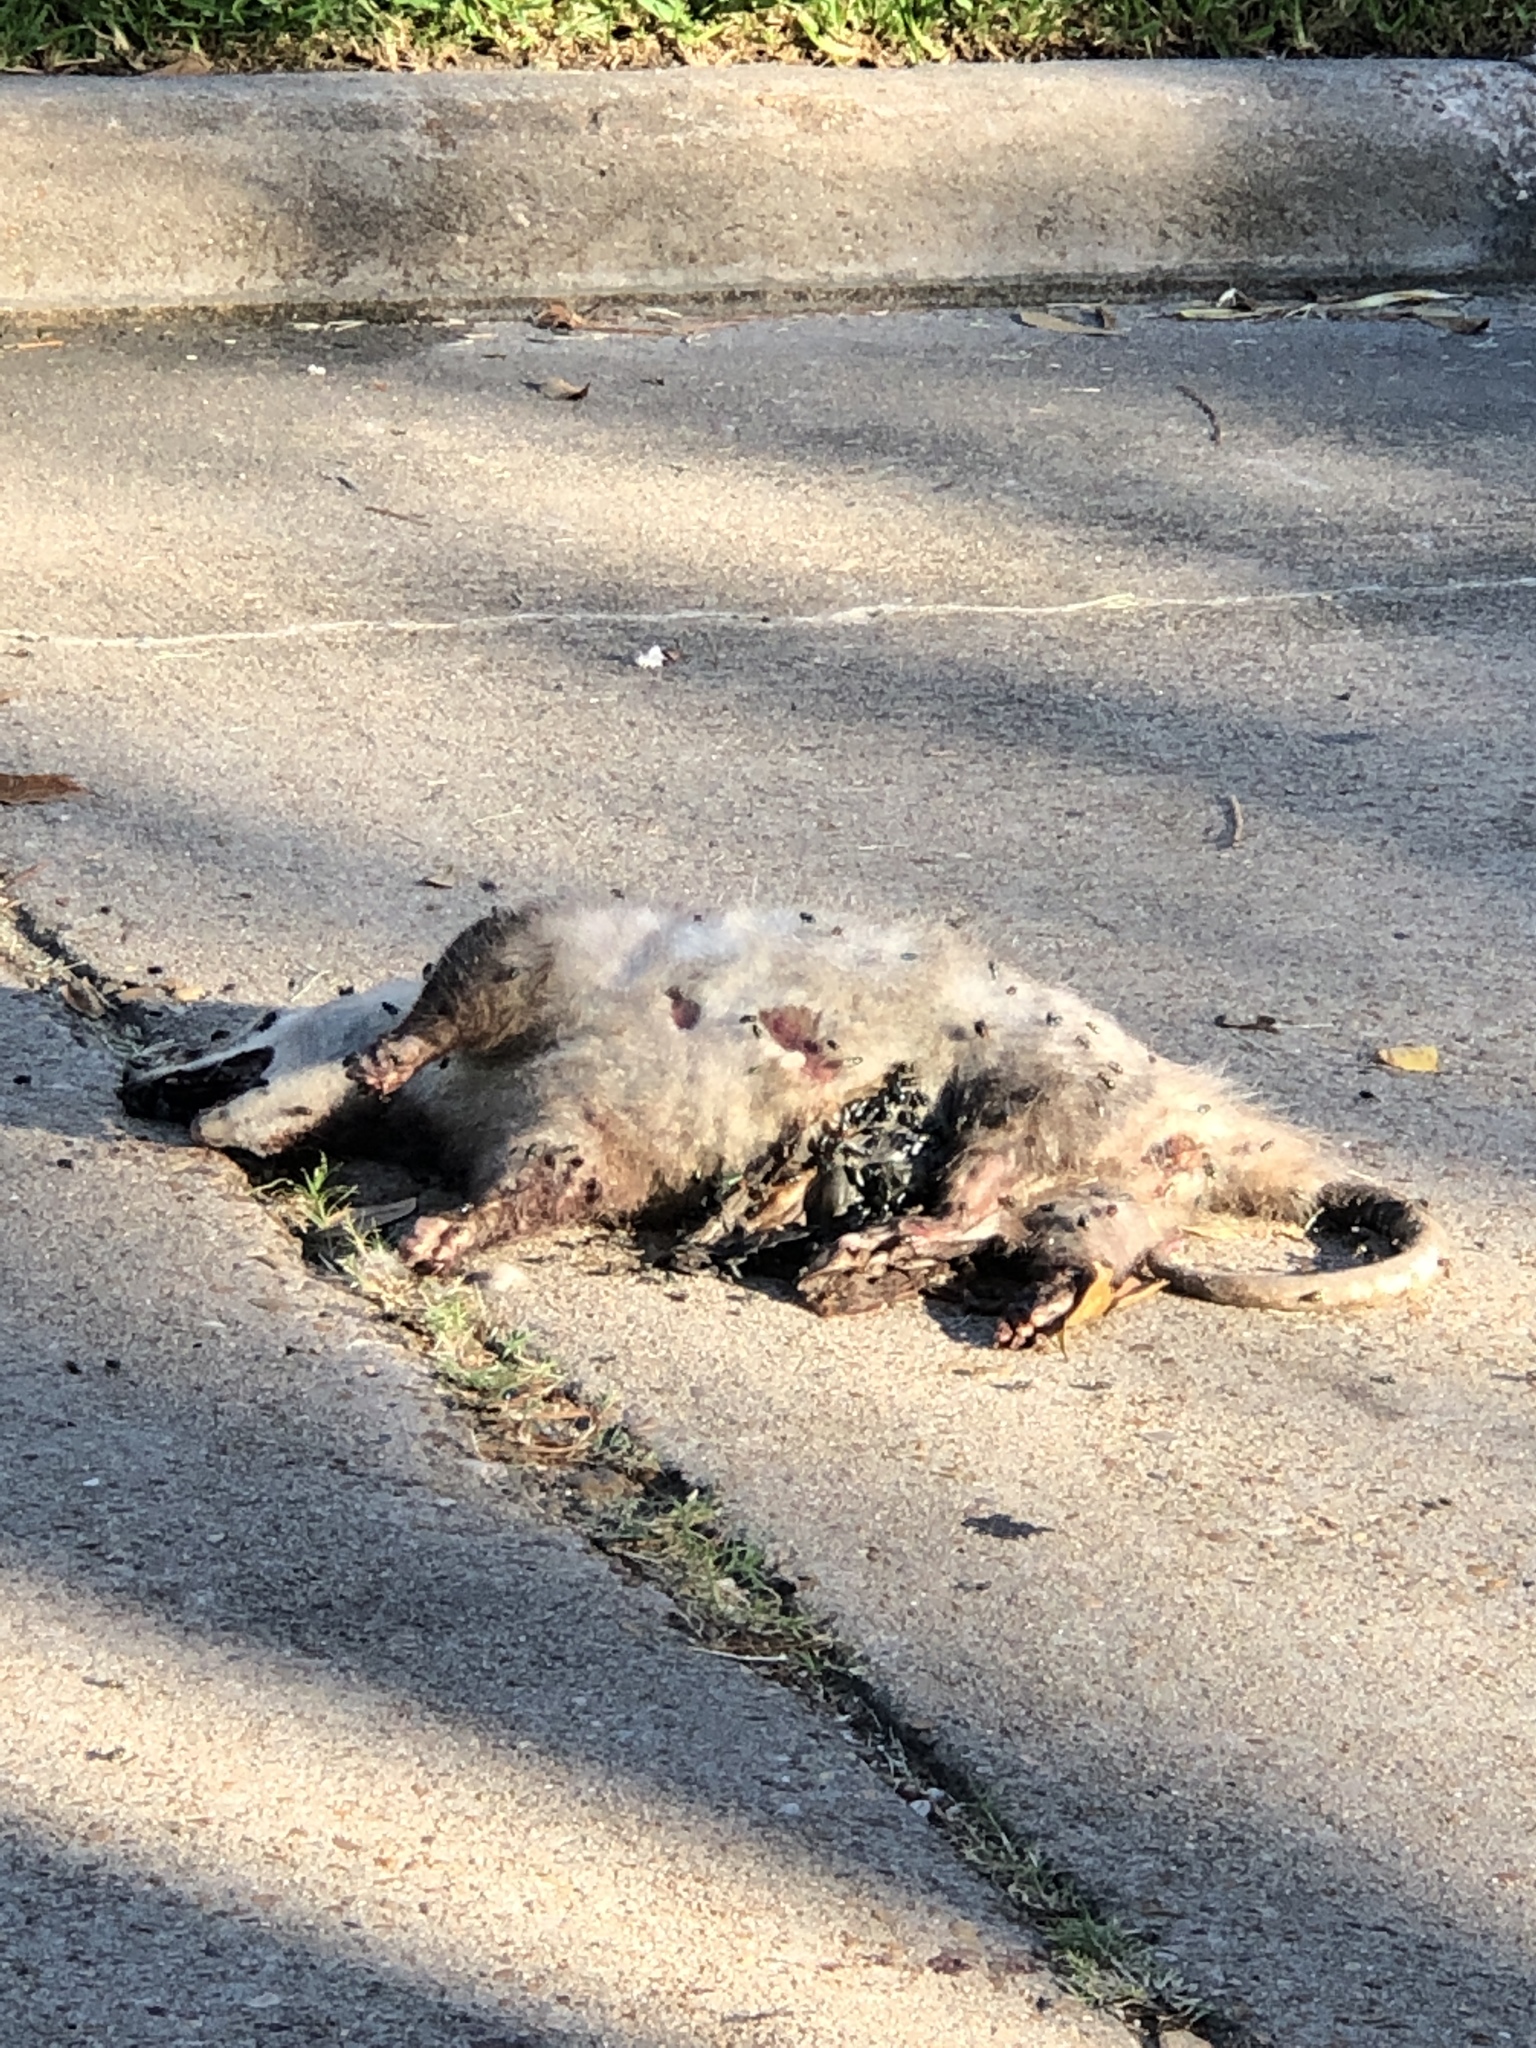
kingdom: Animalia
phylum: Chordata
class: Mammalia
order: Didelphimorphia
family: Didelphidae
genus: Didelphis
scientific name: Didelphis virginiana
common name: Virginia opossum
